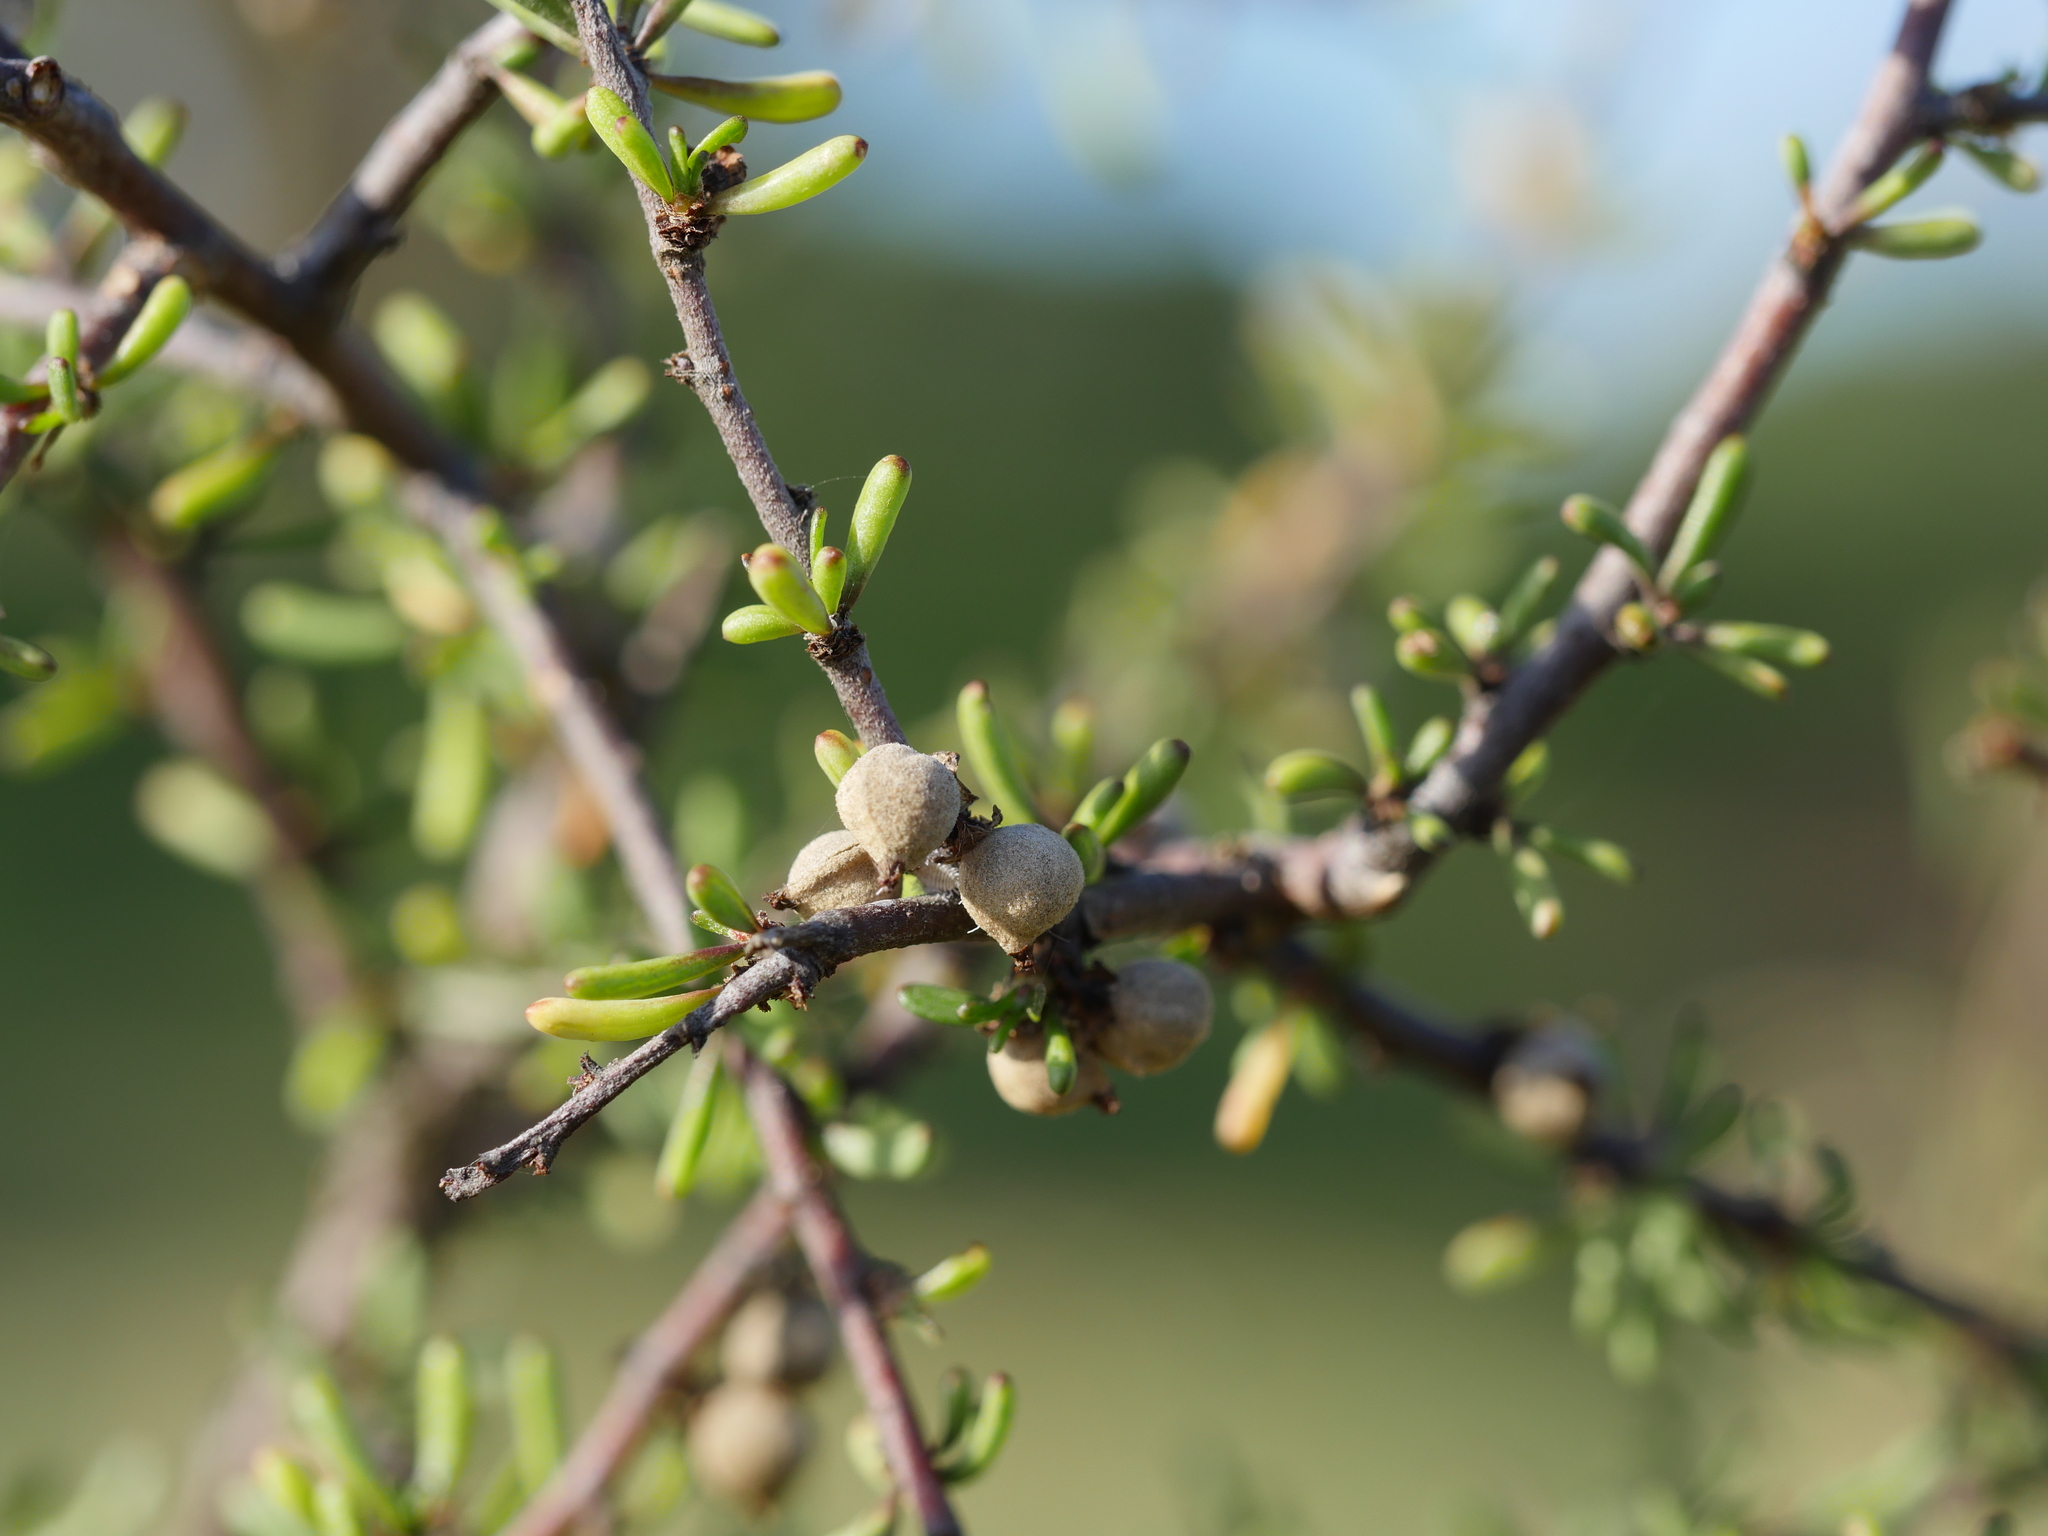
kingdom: Plantae
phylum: Tracheophyta
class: Magnoliopsida
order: Malvales
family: Malvaceae
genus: Plagianthus
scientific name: Plagianthus divaricatus
